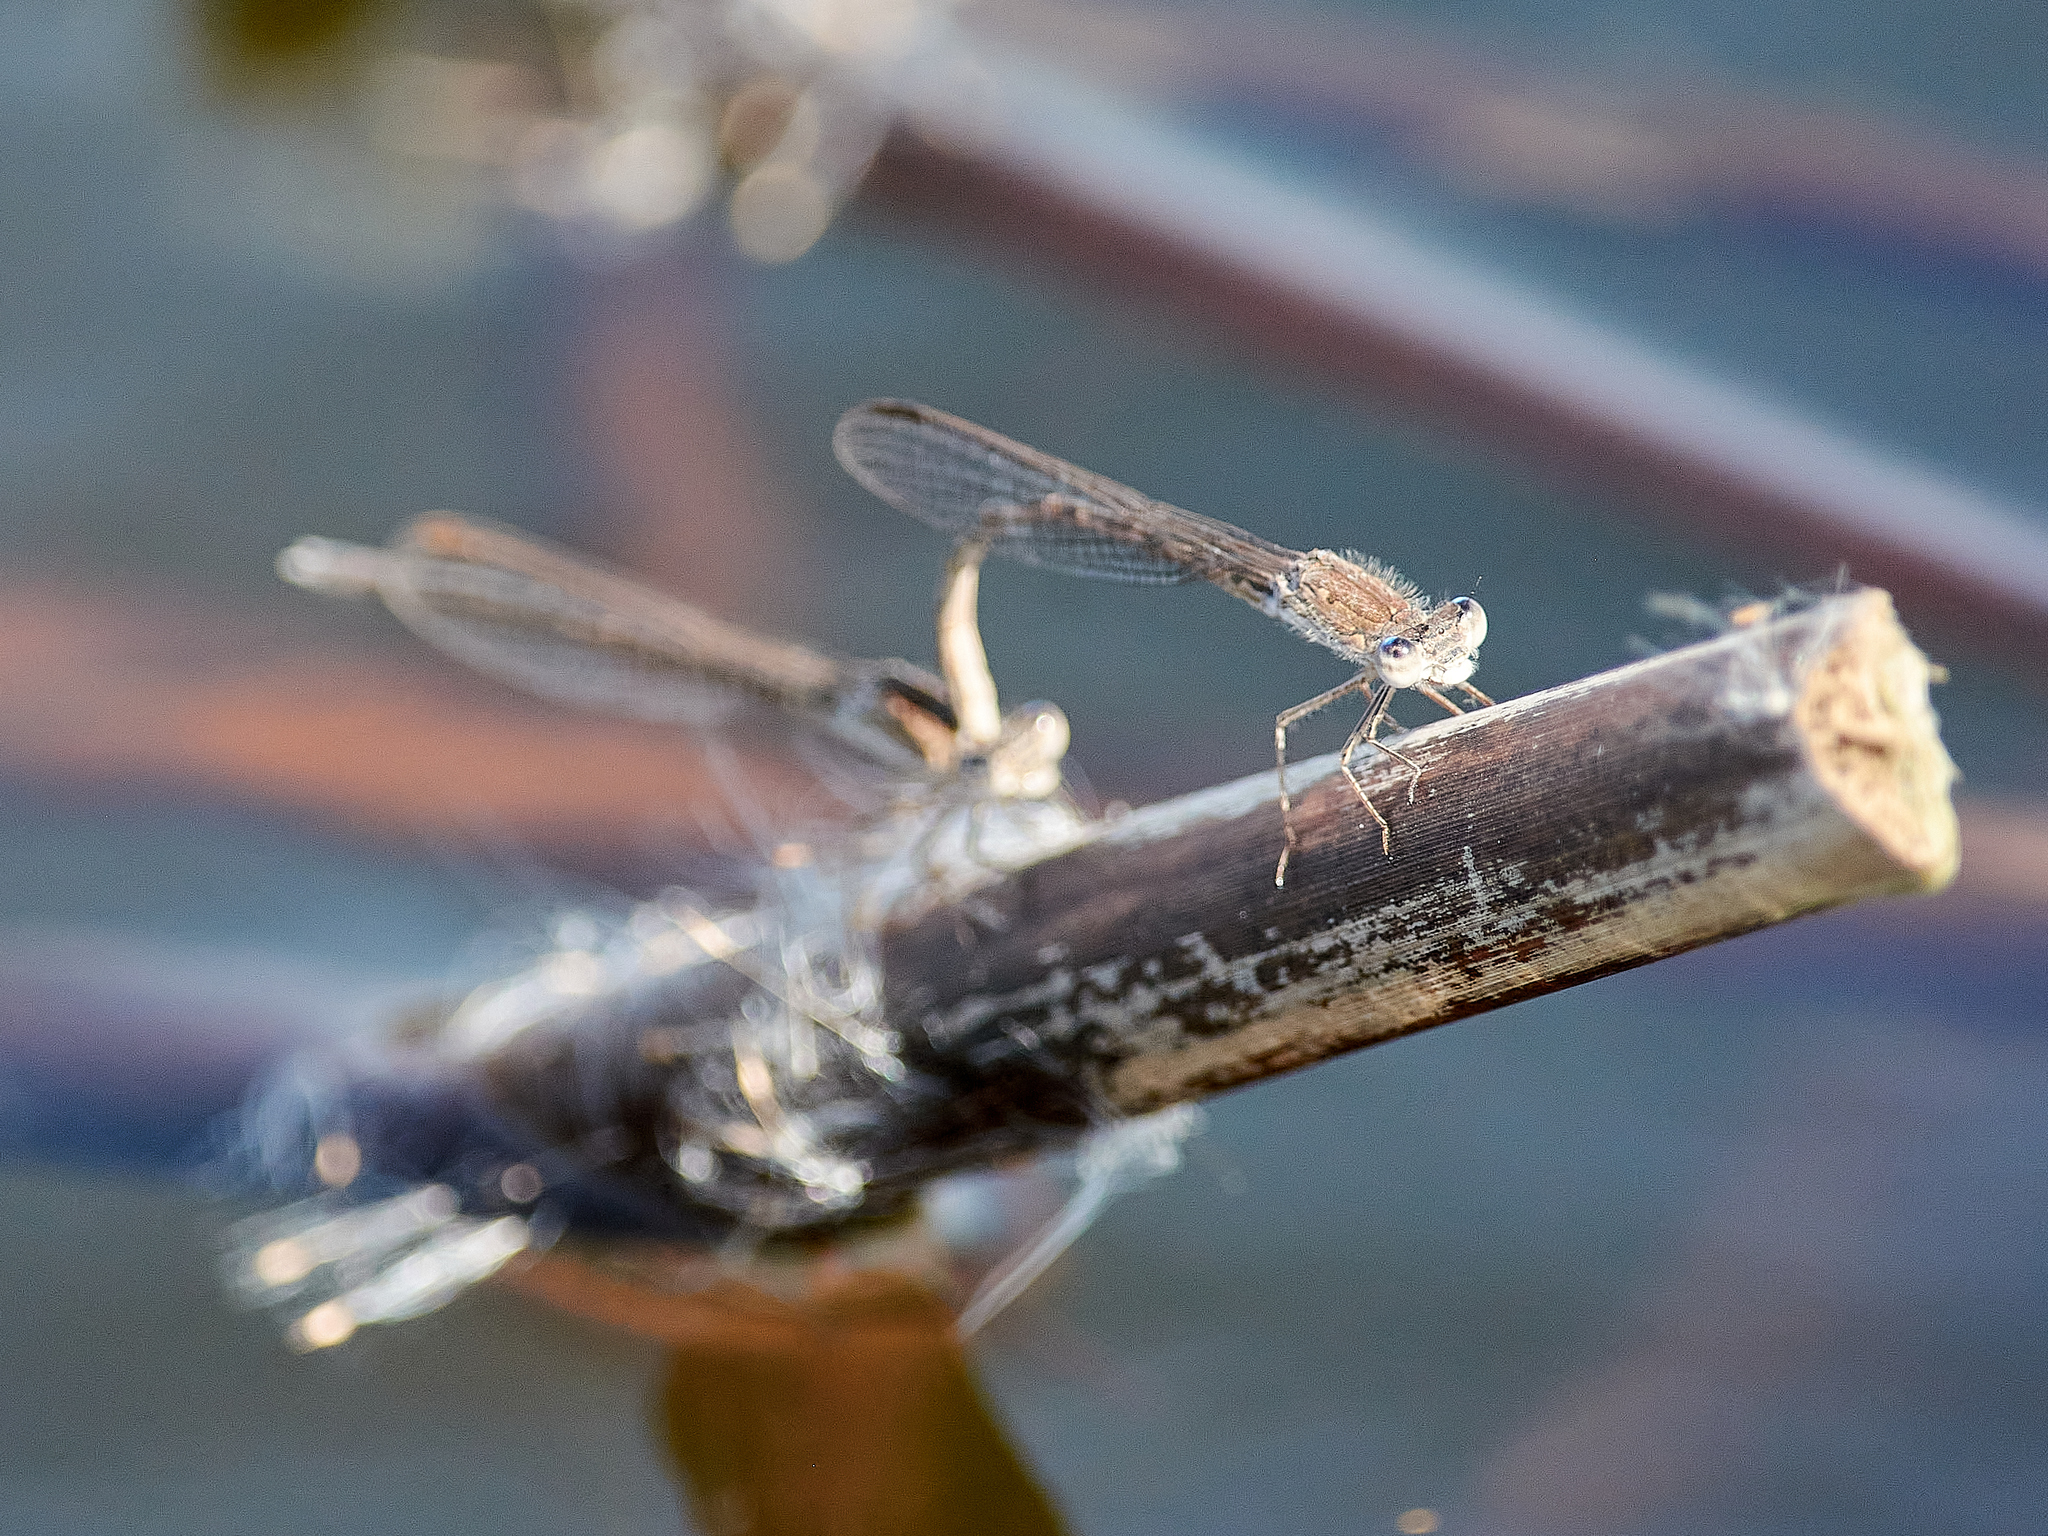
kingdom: Animalia
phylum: Arthropoda
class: Insecta
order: Odonata
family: Lestidae
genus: Sympecma
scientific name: Sympecma paedisca
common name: Siberian winter damsel
